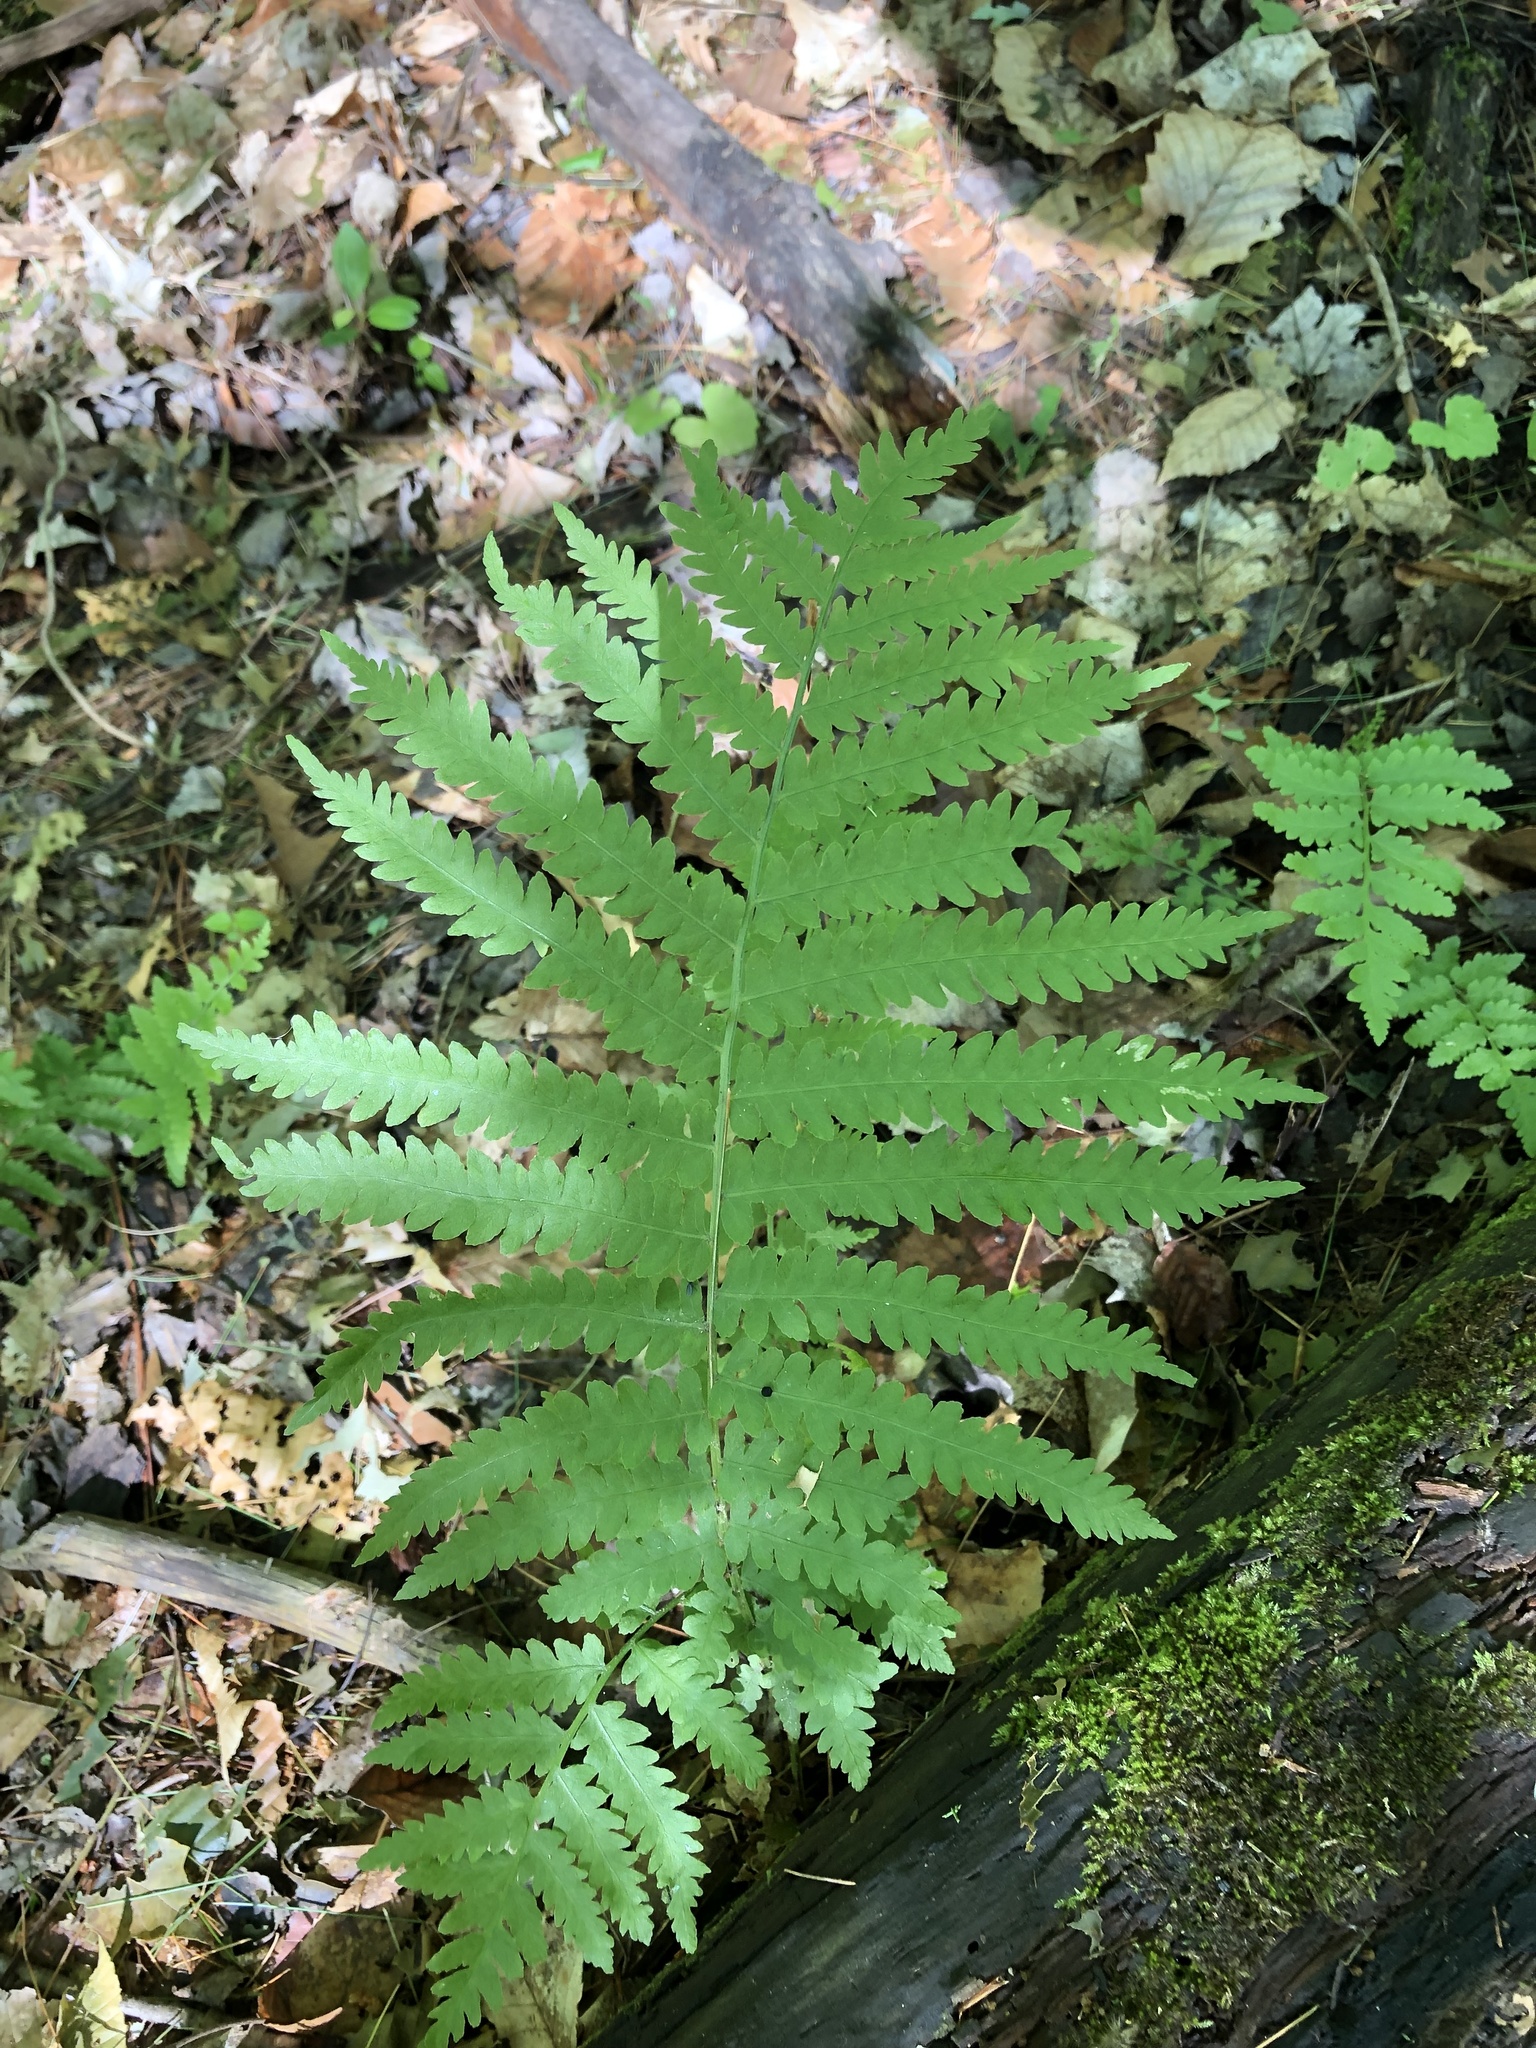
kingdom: Plantae
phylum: Tracheophyta
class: Polypodiopsida
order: Polypodiales
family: Onocleaceae
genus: Matteuccia
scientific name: Matteuccia struthiopteris
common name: Ostrich fern
